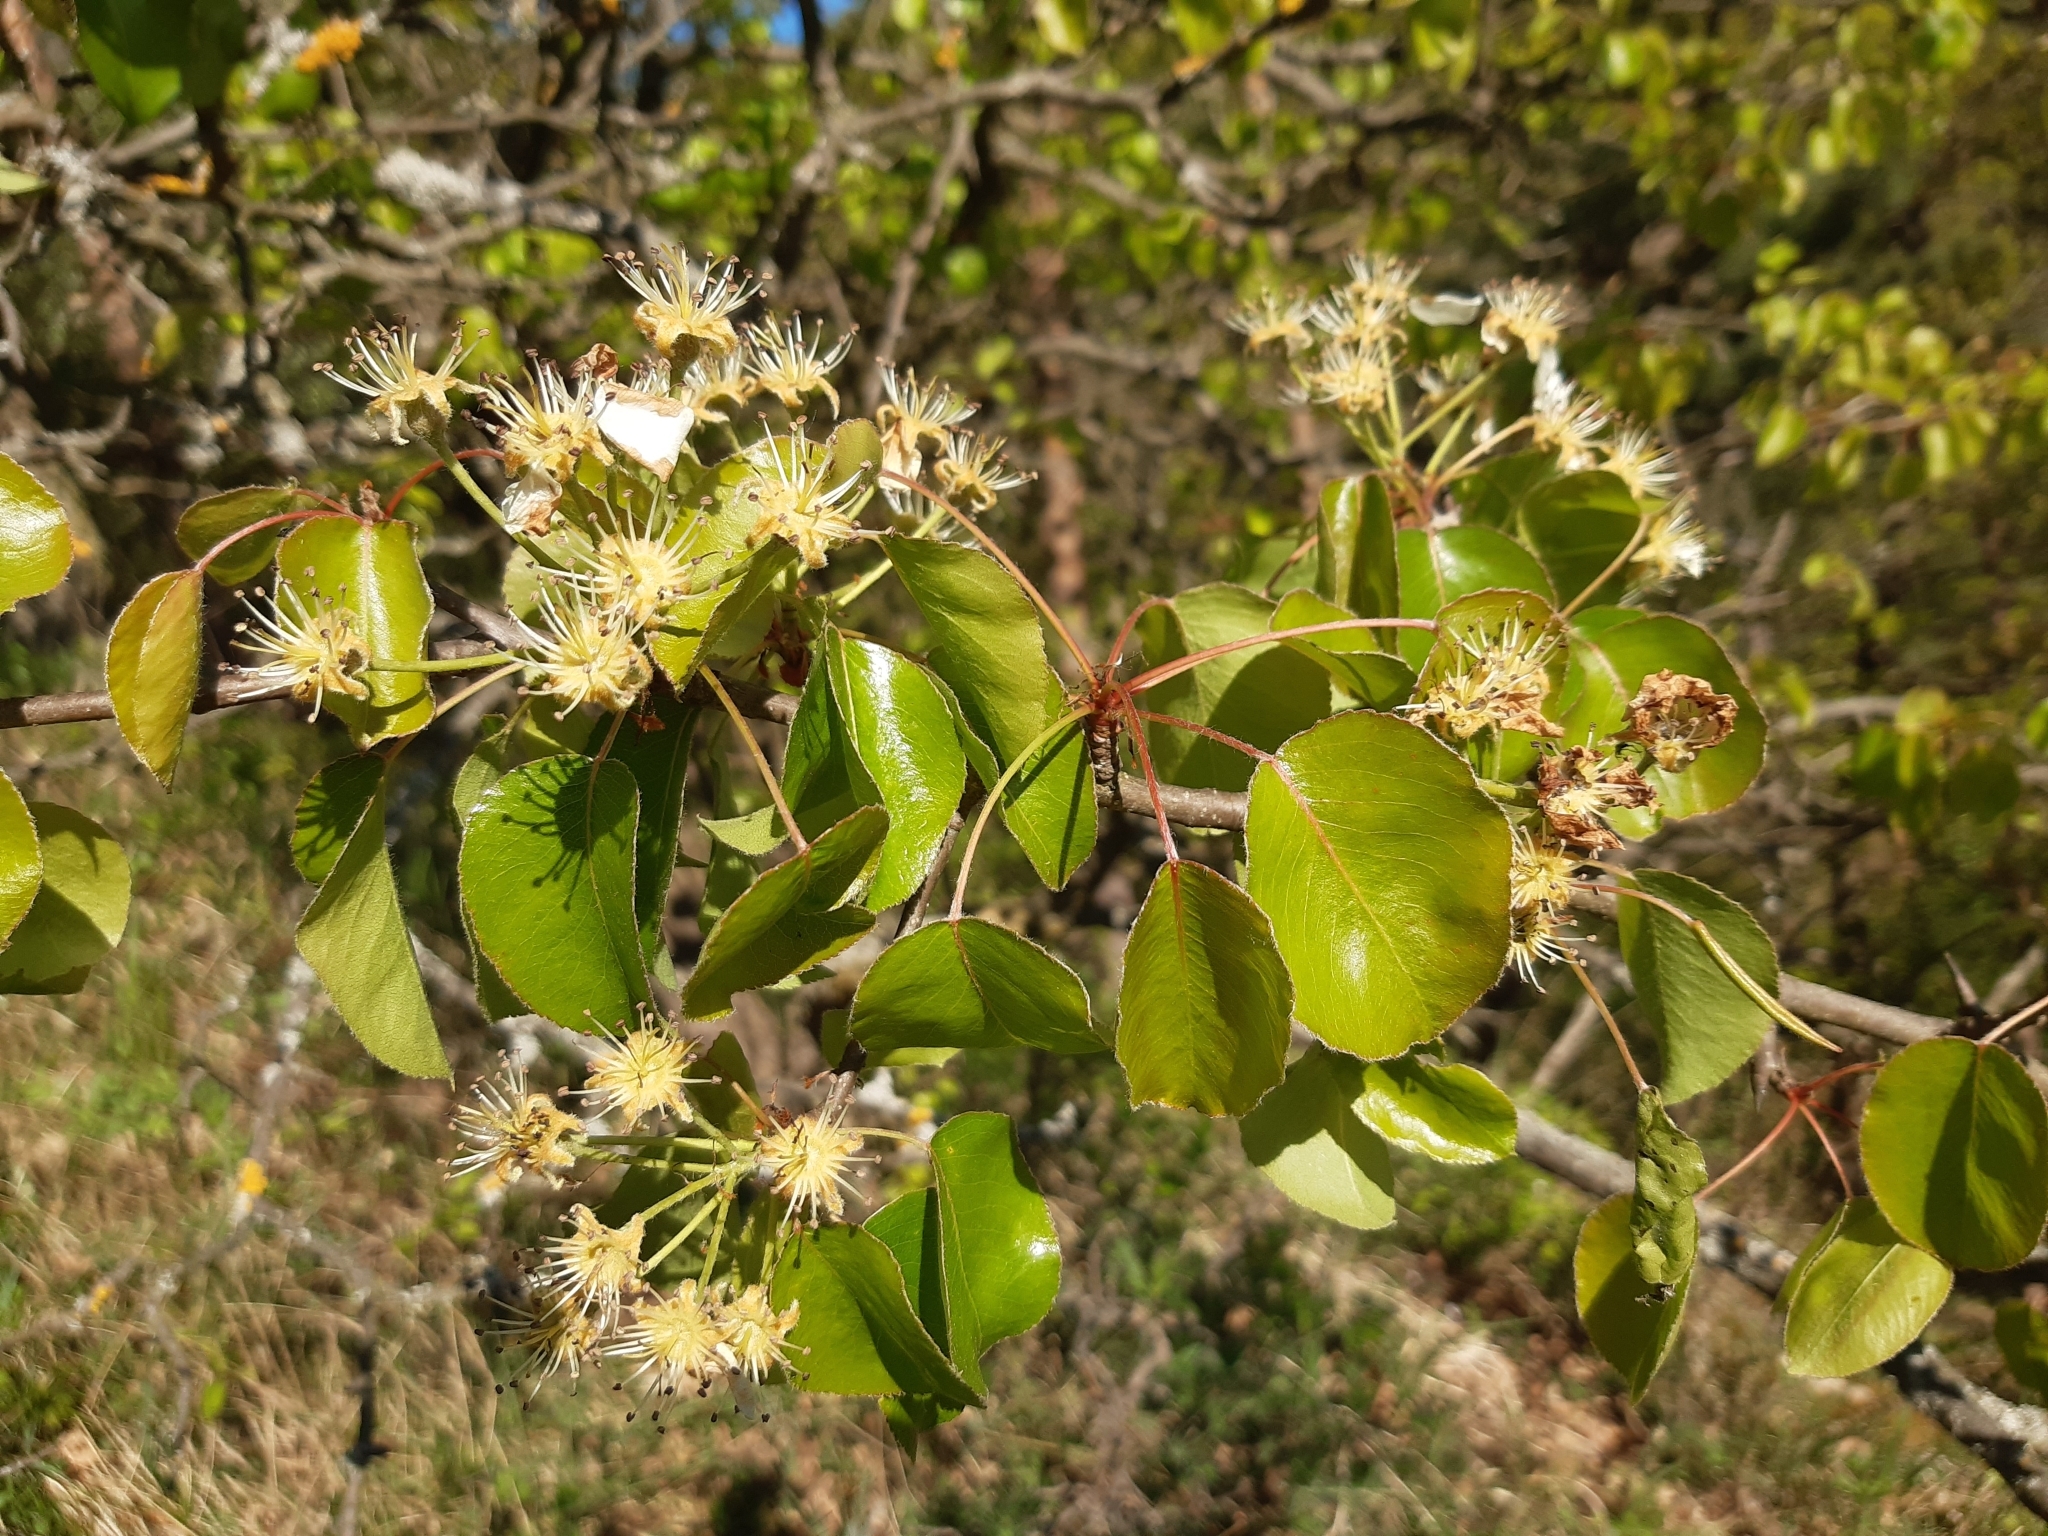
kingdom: Plantae
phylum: Tracheophyta
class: Magnoliopsida
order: Rosales
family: Rosaceae
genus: Pyrus
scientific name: Pyrus
